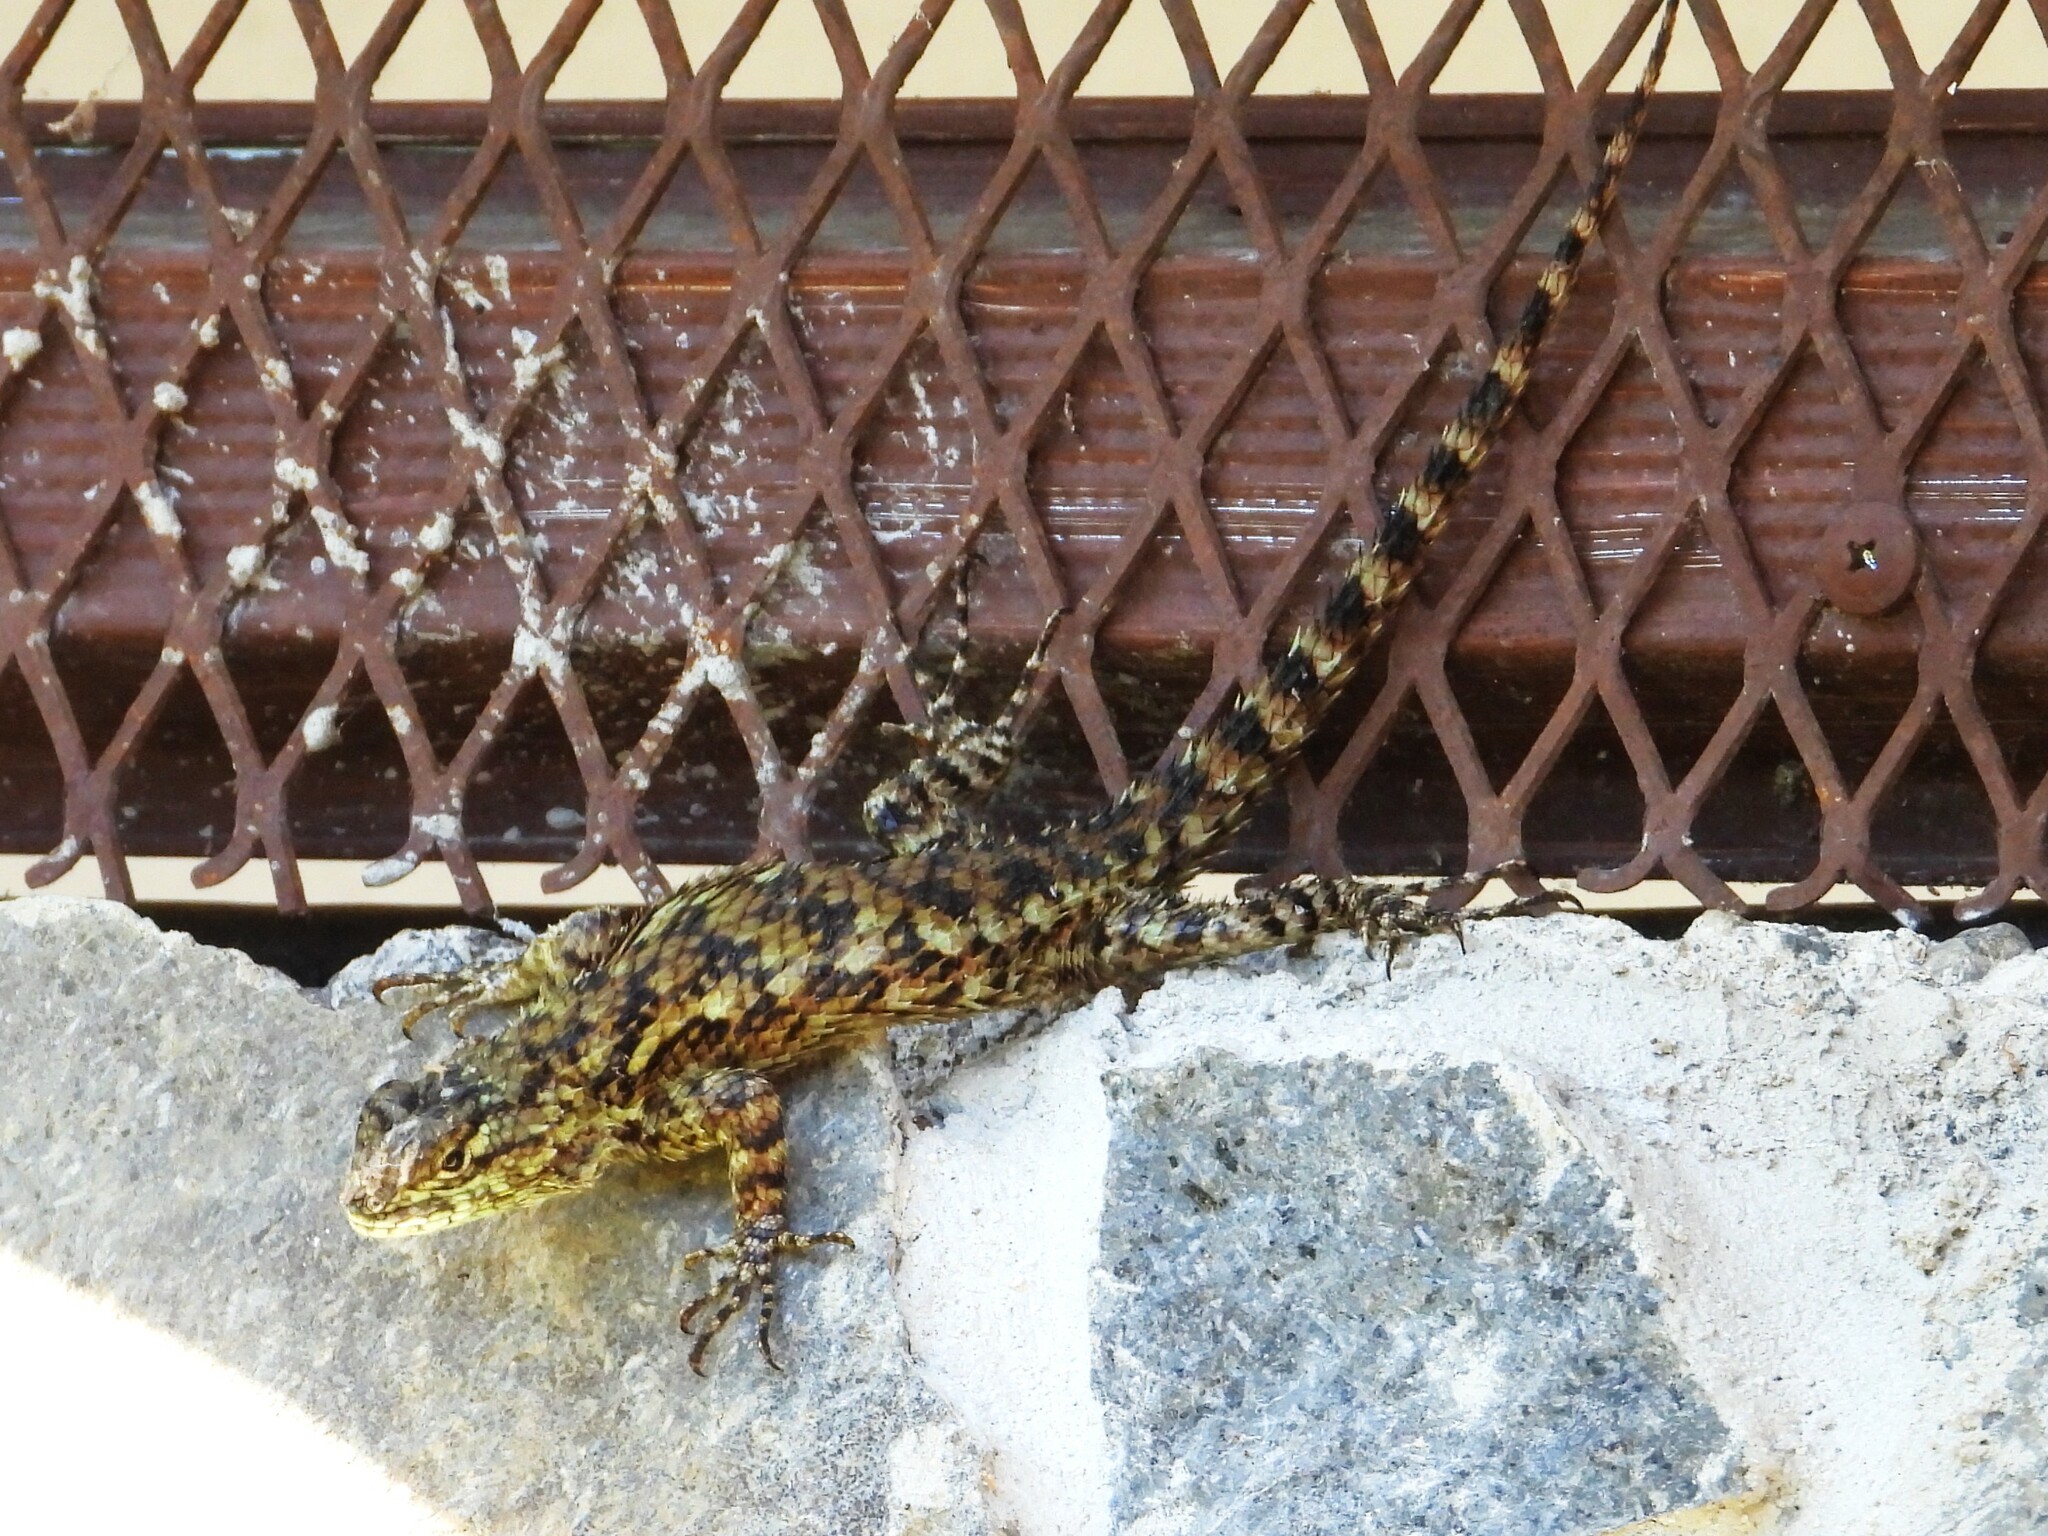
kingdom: Animalia
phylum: Chordata
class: Squamata
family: Phrynosomatidae
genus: Sceloporus
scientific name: Sceloporus malachiticus
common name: Green spiny lizard
